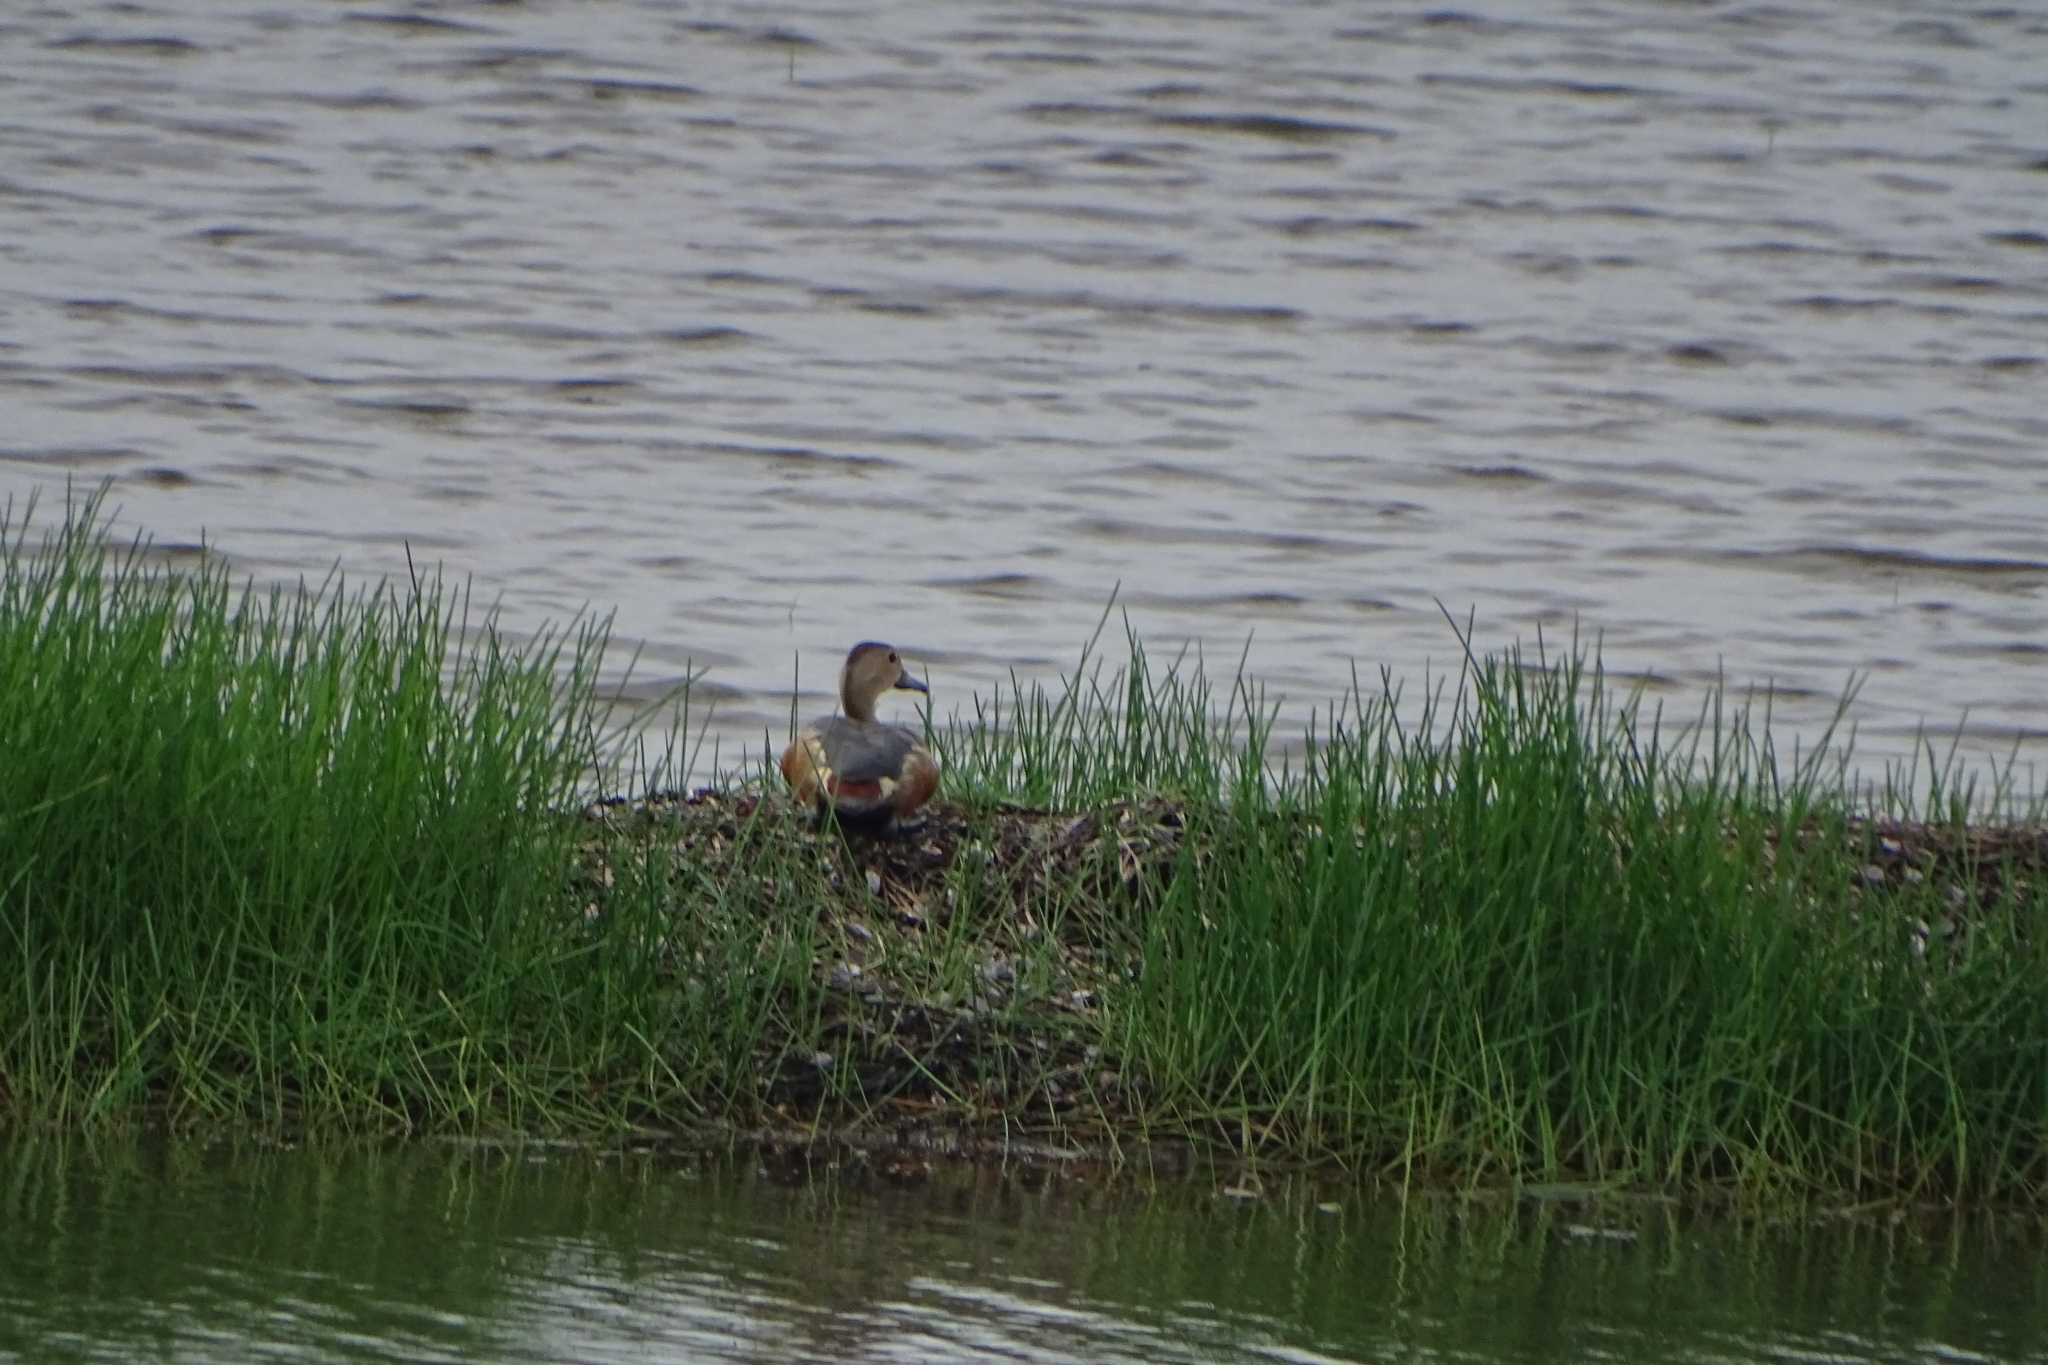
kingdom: Animalia
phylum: Chordata
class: Aves
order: Anseriformes
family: Anatidae
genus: Dendrocygna
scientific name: Dendrocygna javanica
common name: Lesser whistling-duck
